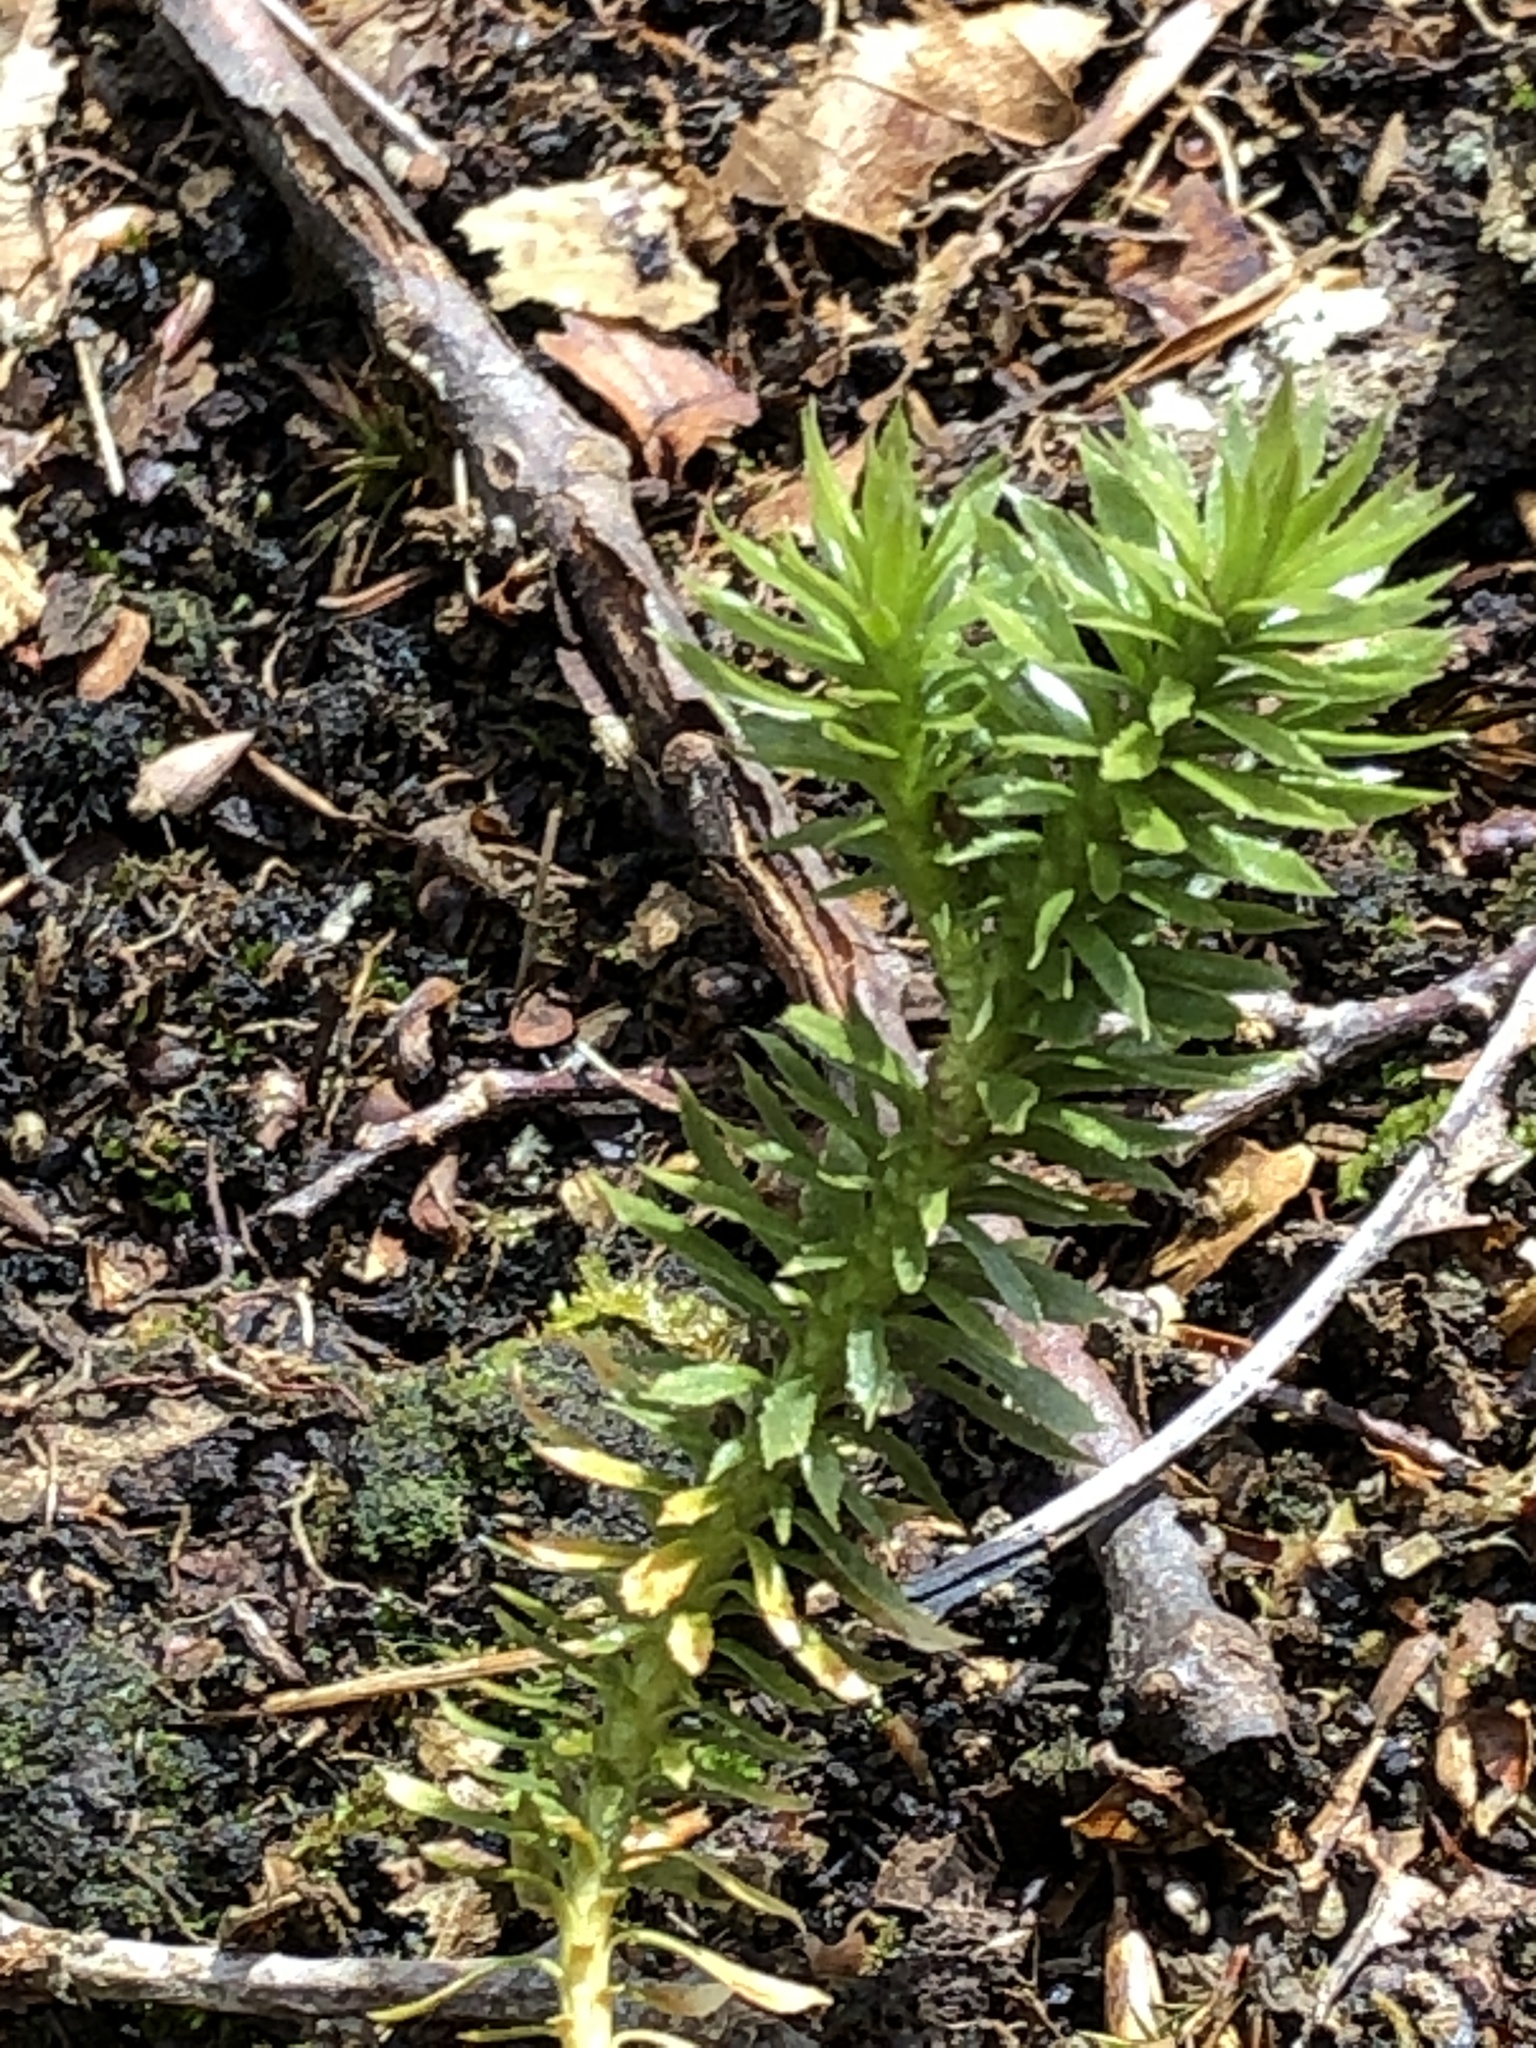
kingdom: Plantae
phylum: Tracheophyta
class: Lycopodiopsida
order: Lycopodiales
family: Lycopodiaceae
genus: Huperzia
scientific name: Huperzia lucidula
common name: Shining clubmoss
